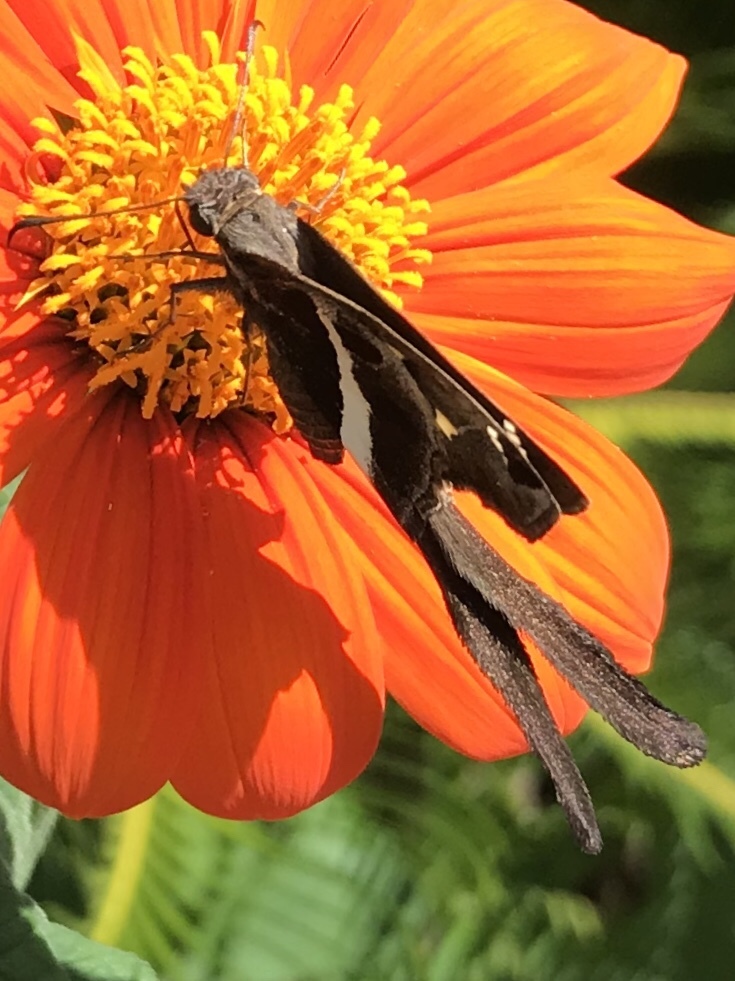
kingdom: Animalia
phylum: Arthropoda
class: Insecta
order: Lepidoptera
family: Hesperiidae
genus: Chioides
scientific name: Chioides catillus
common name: Silverbanded skipper
